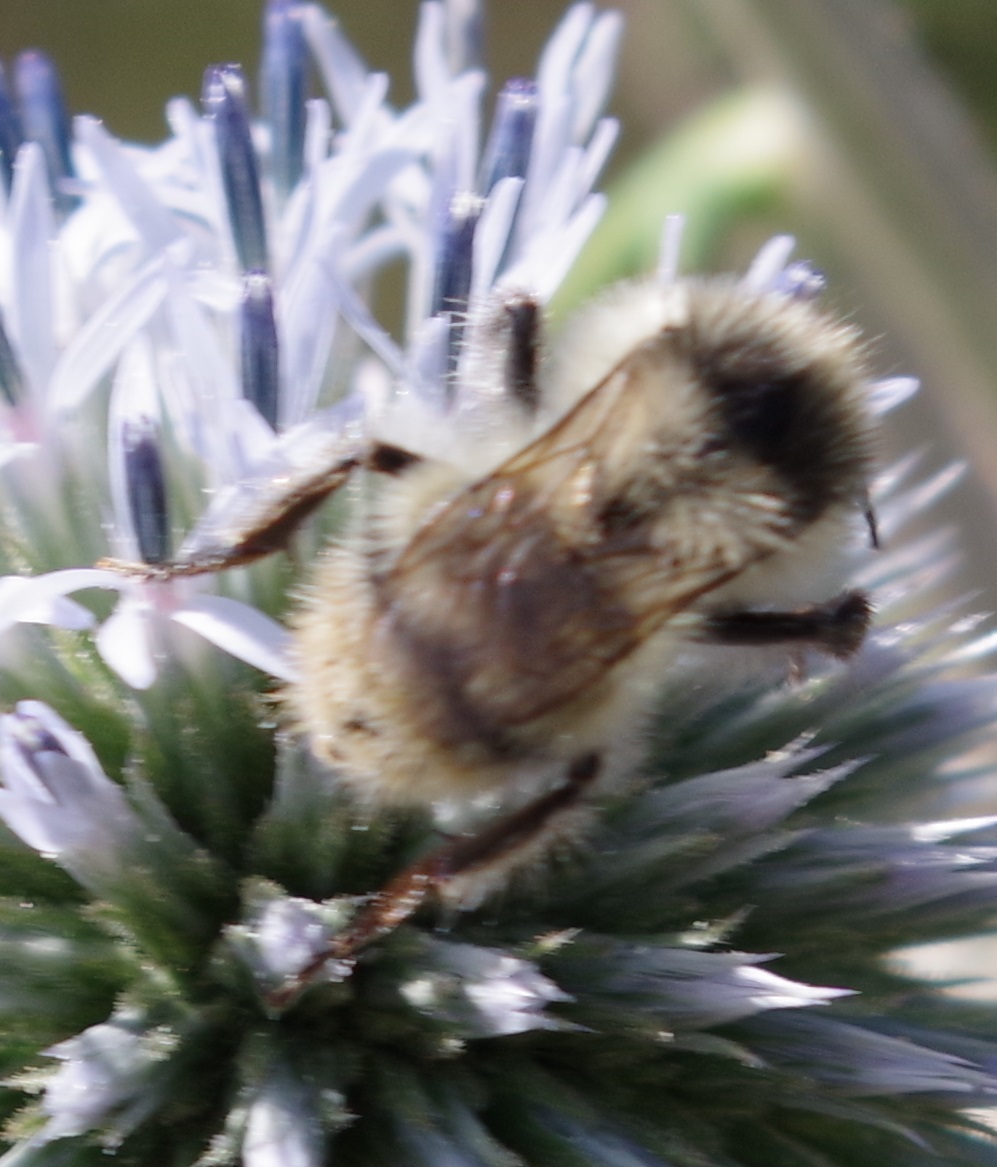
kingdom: Animalia
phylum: Arthropoda
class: Insecta
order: Hymenoptera
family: Apidae
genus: Bombus
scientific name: Bombus sylvarum
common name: Shrill carder bee
